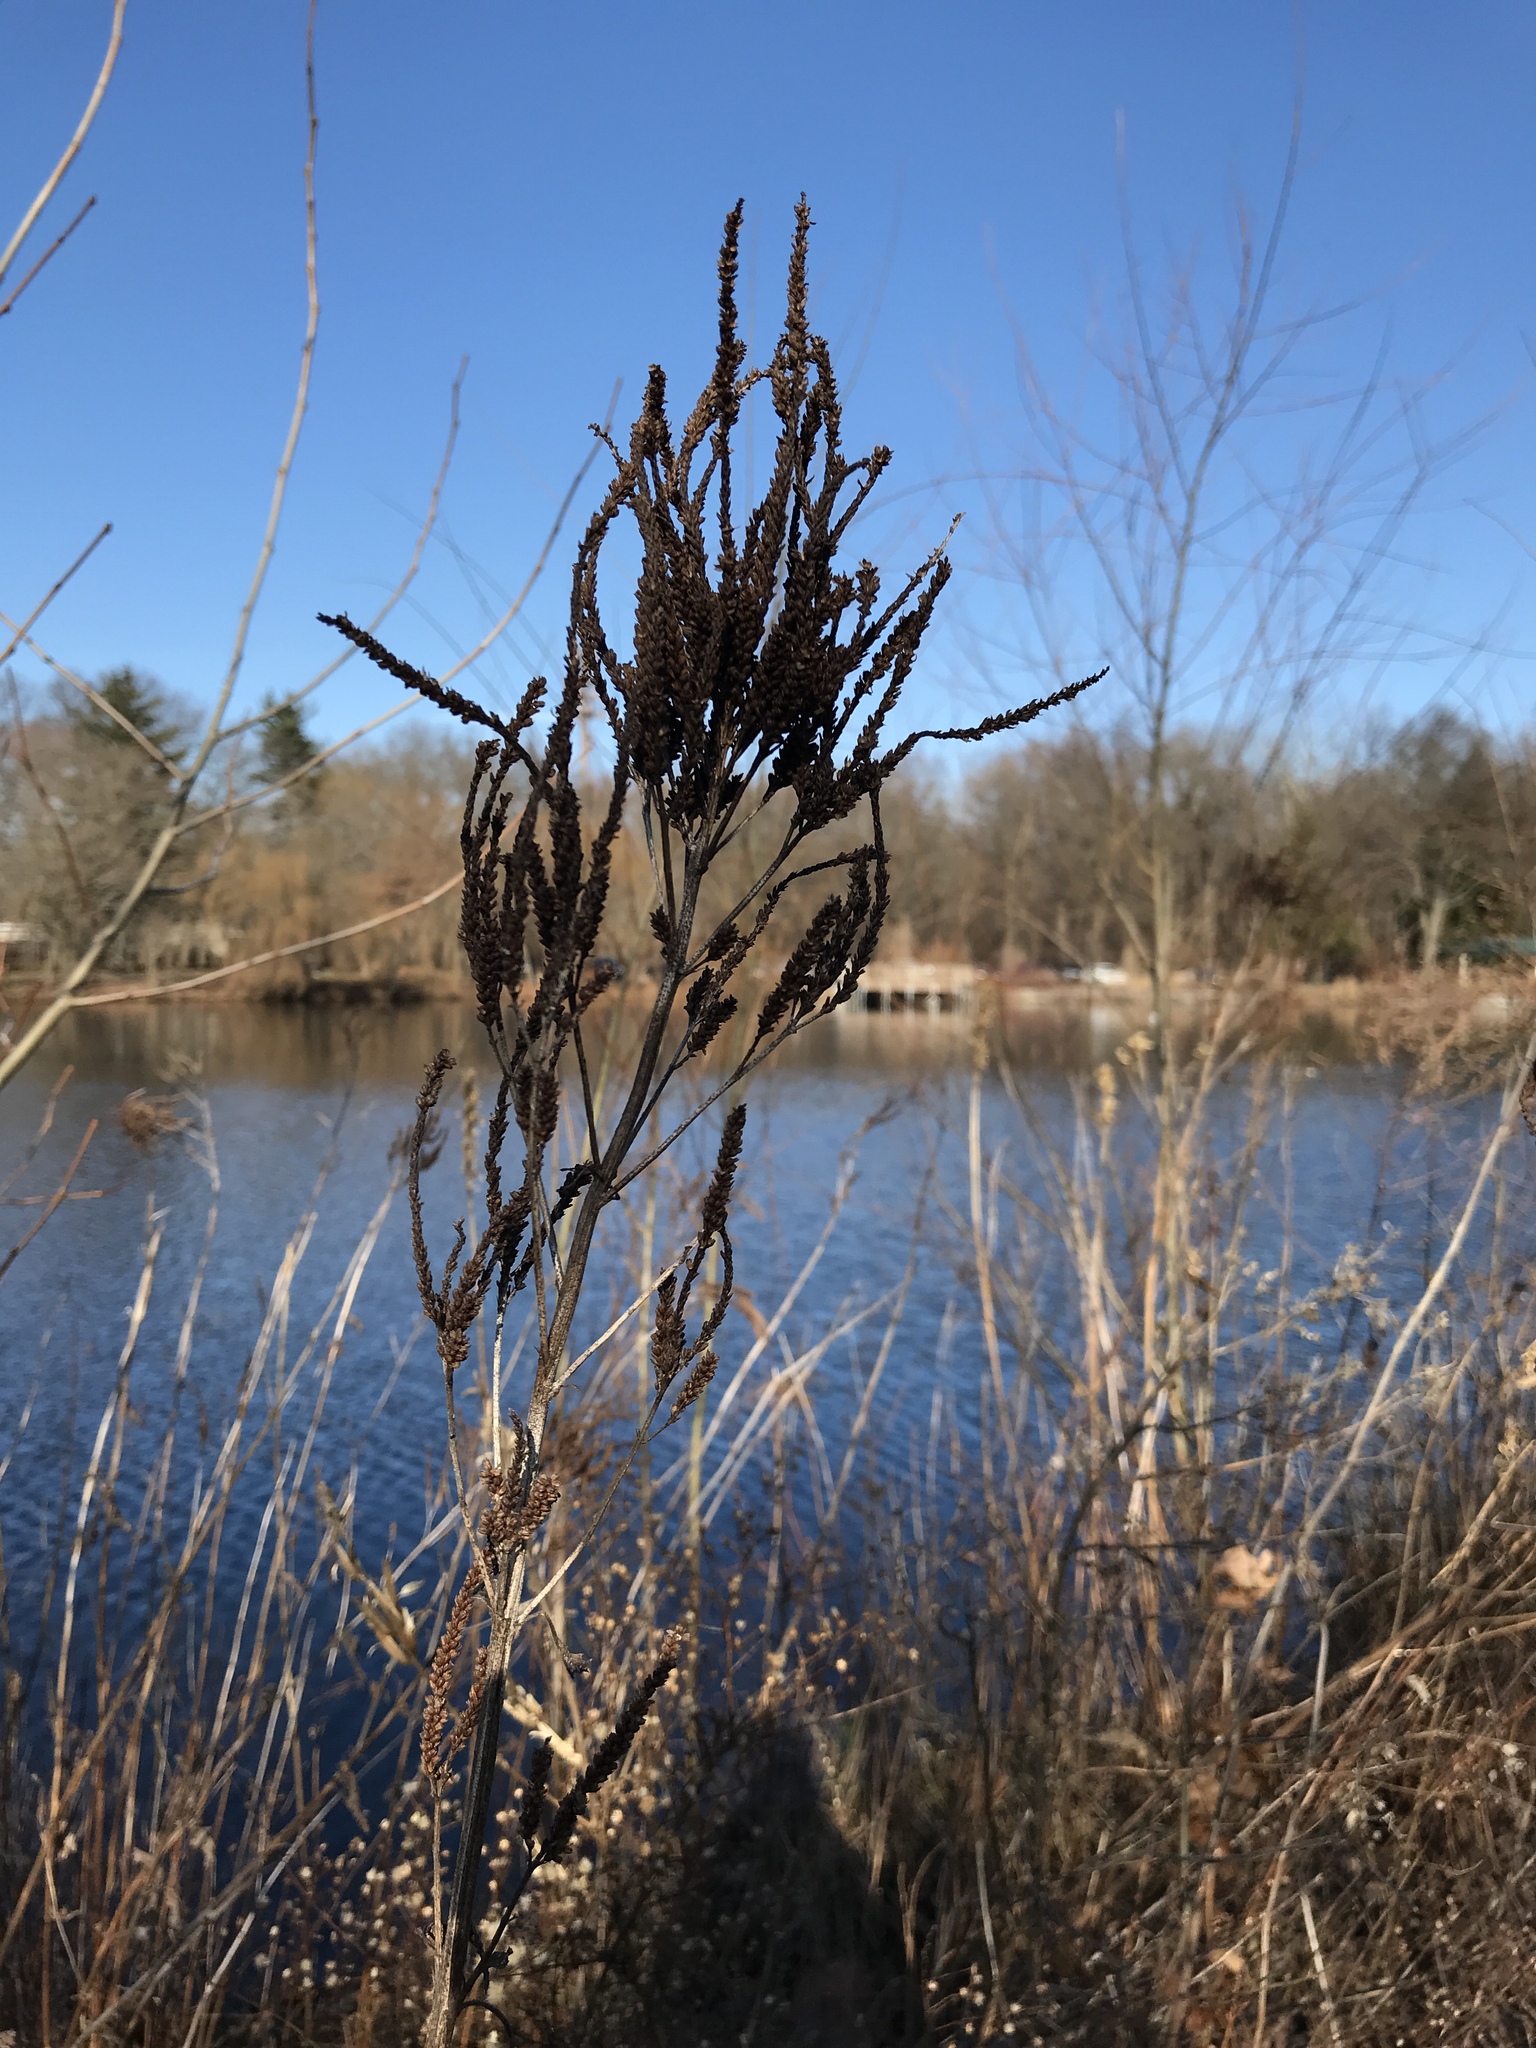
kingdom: Plantae
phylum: Tracheophyta
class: Magnoliopsida
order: Lamiales
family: Verbenaceae
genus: Verbena
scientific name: Verbena hastata
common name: American blue vervain
